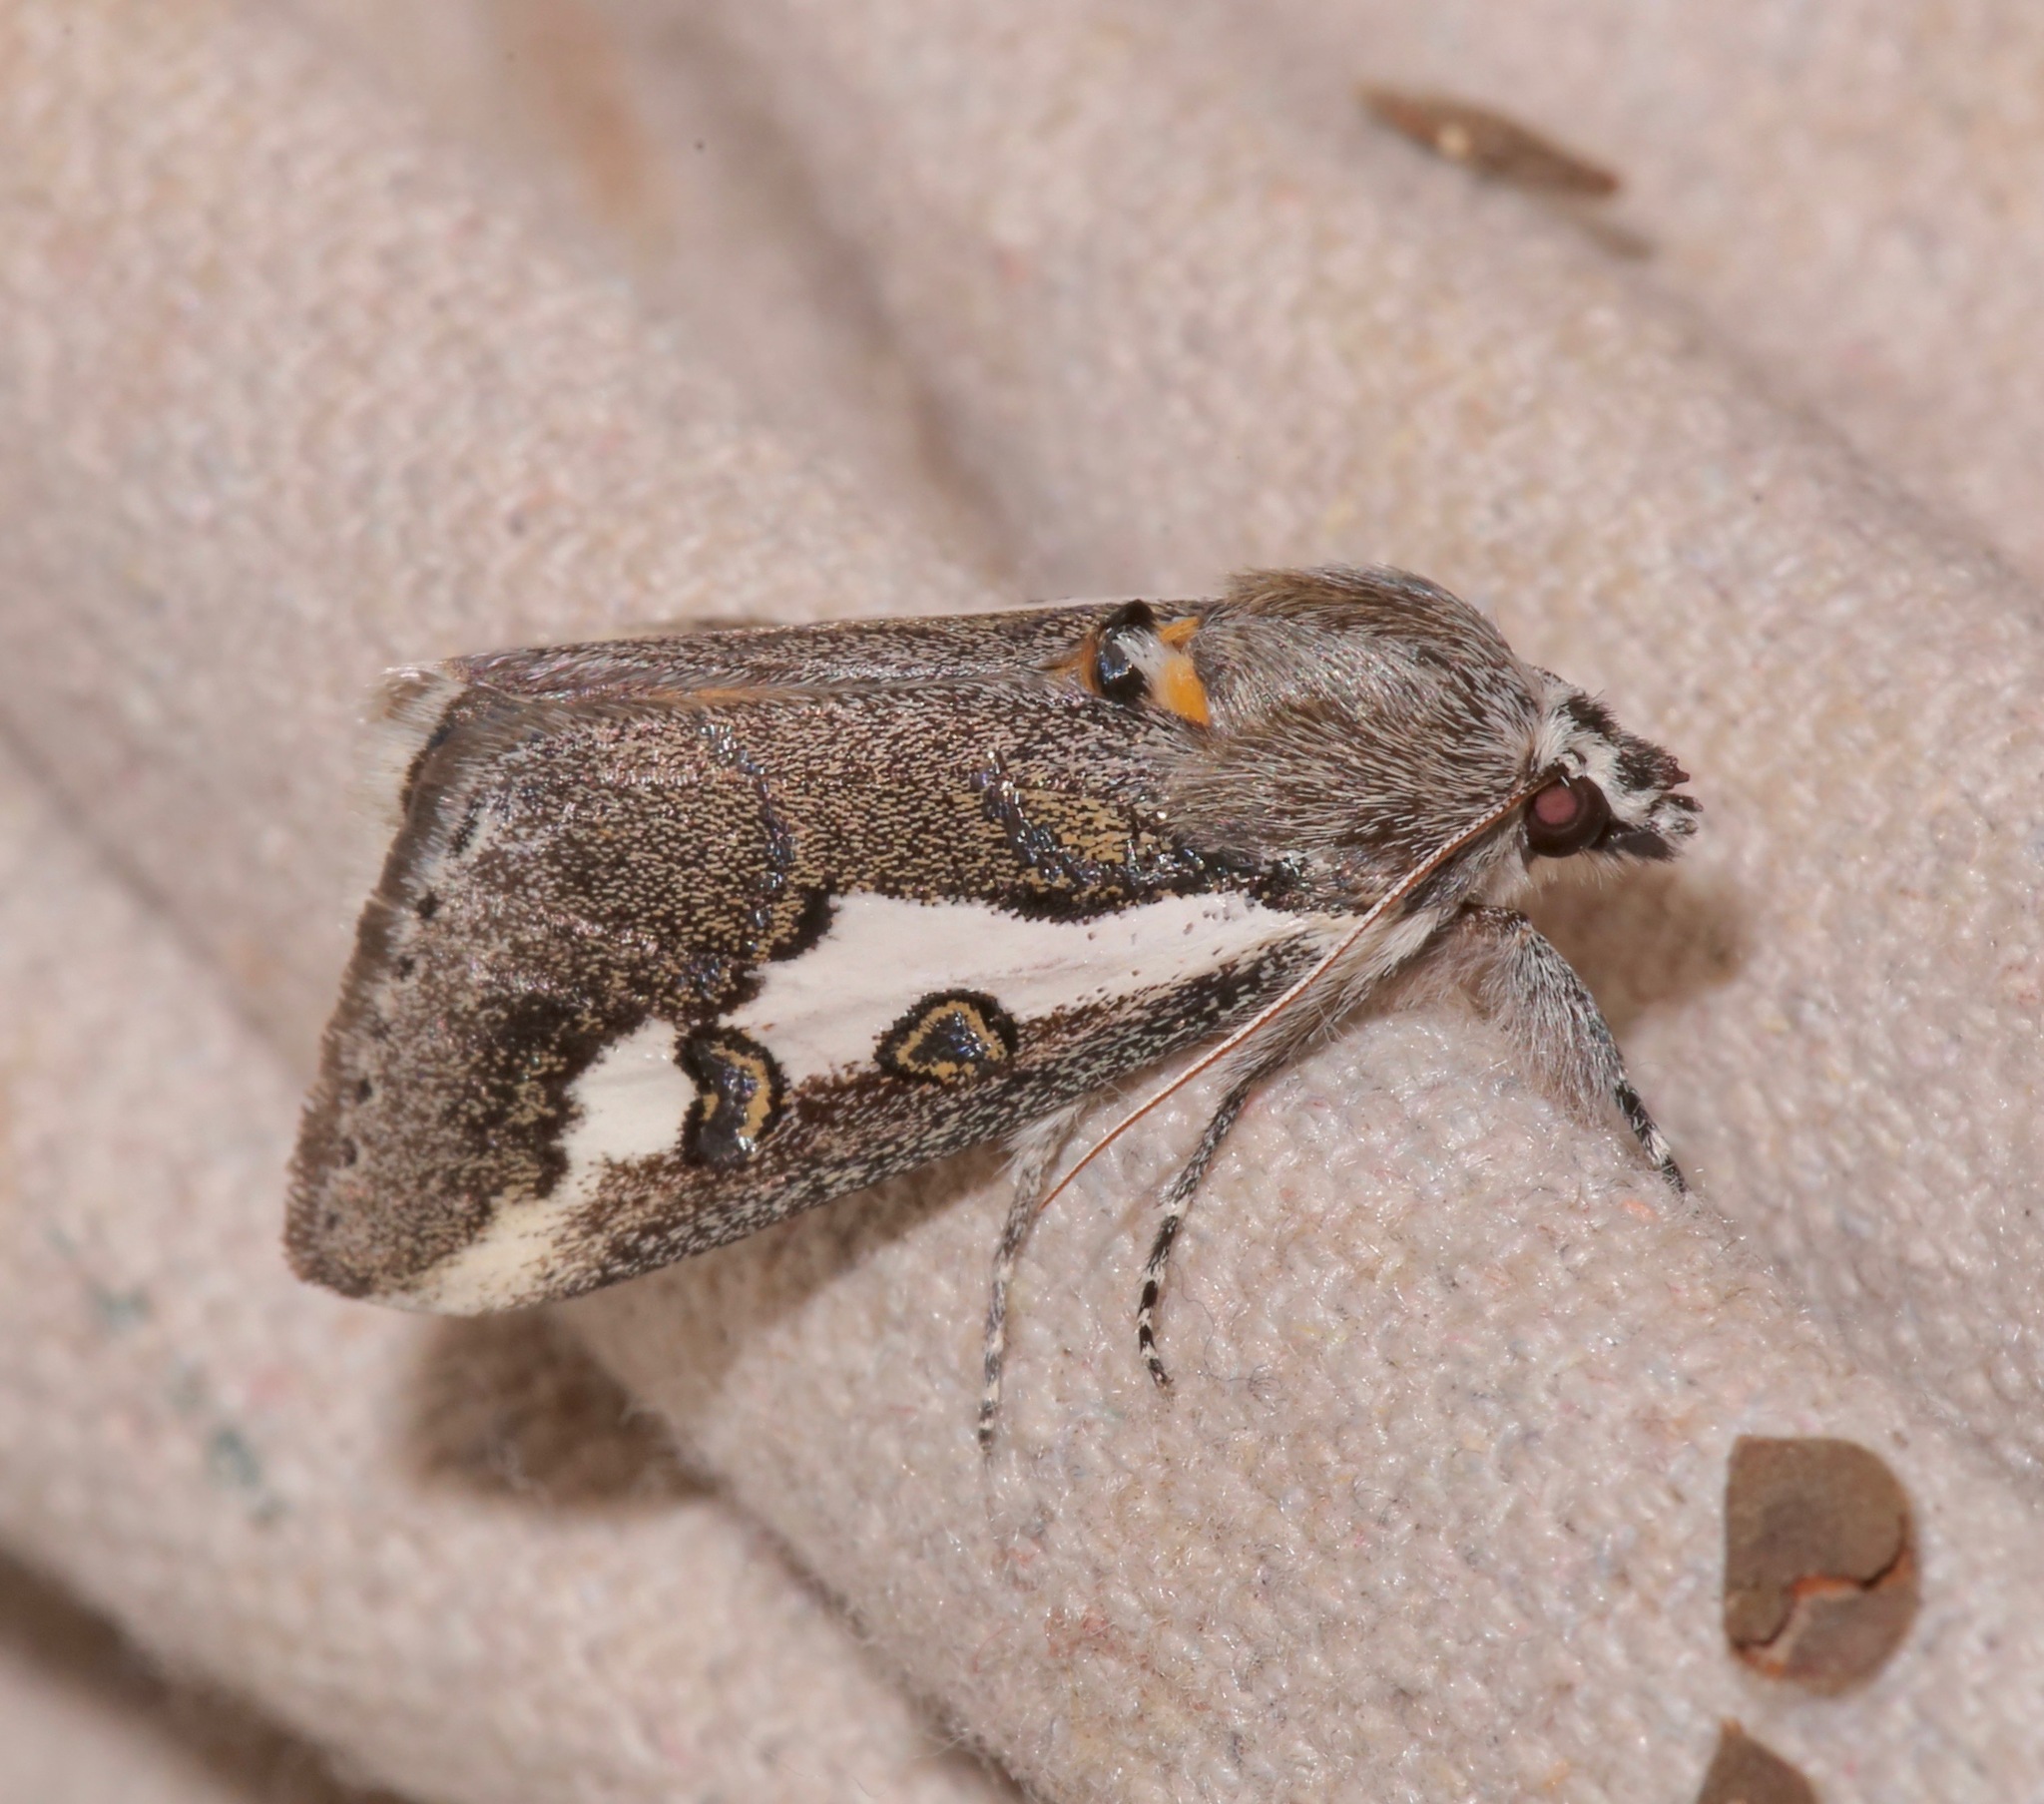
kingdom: Animalia
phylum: Arthropoda
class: Insecta
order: Lepidoptera
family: Noctuidae
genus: Euscirrhopterus
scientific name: Euscirrhopterus gloveri
